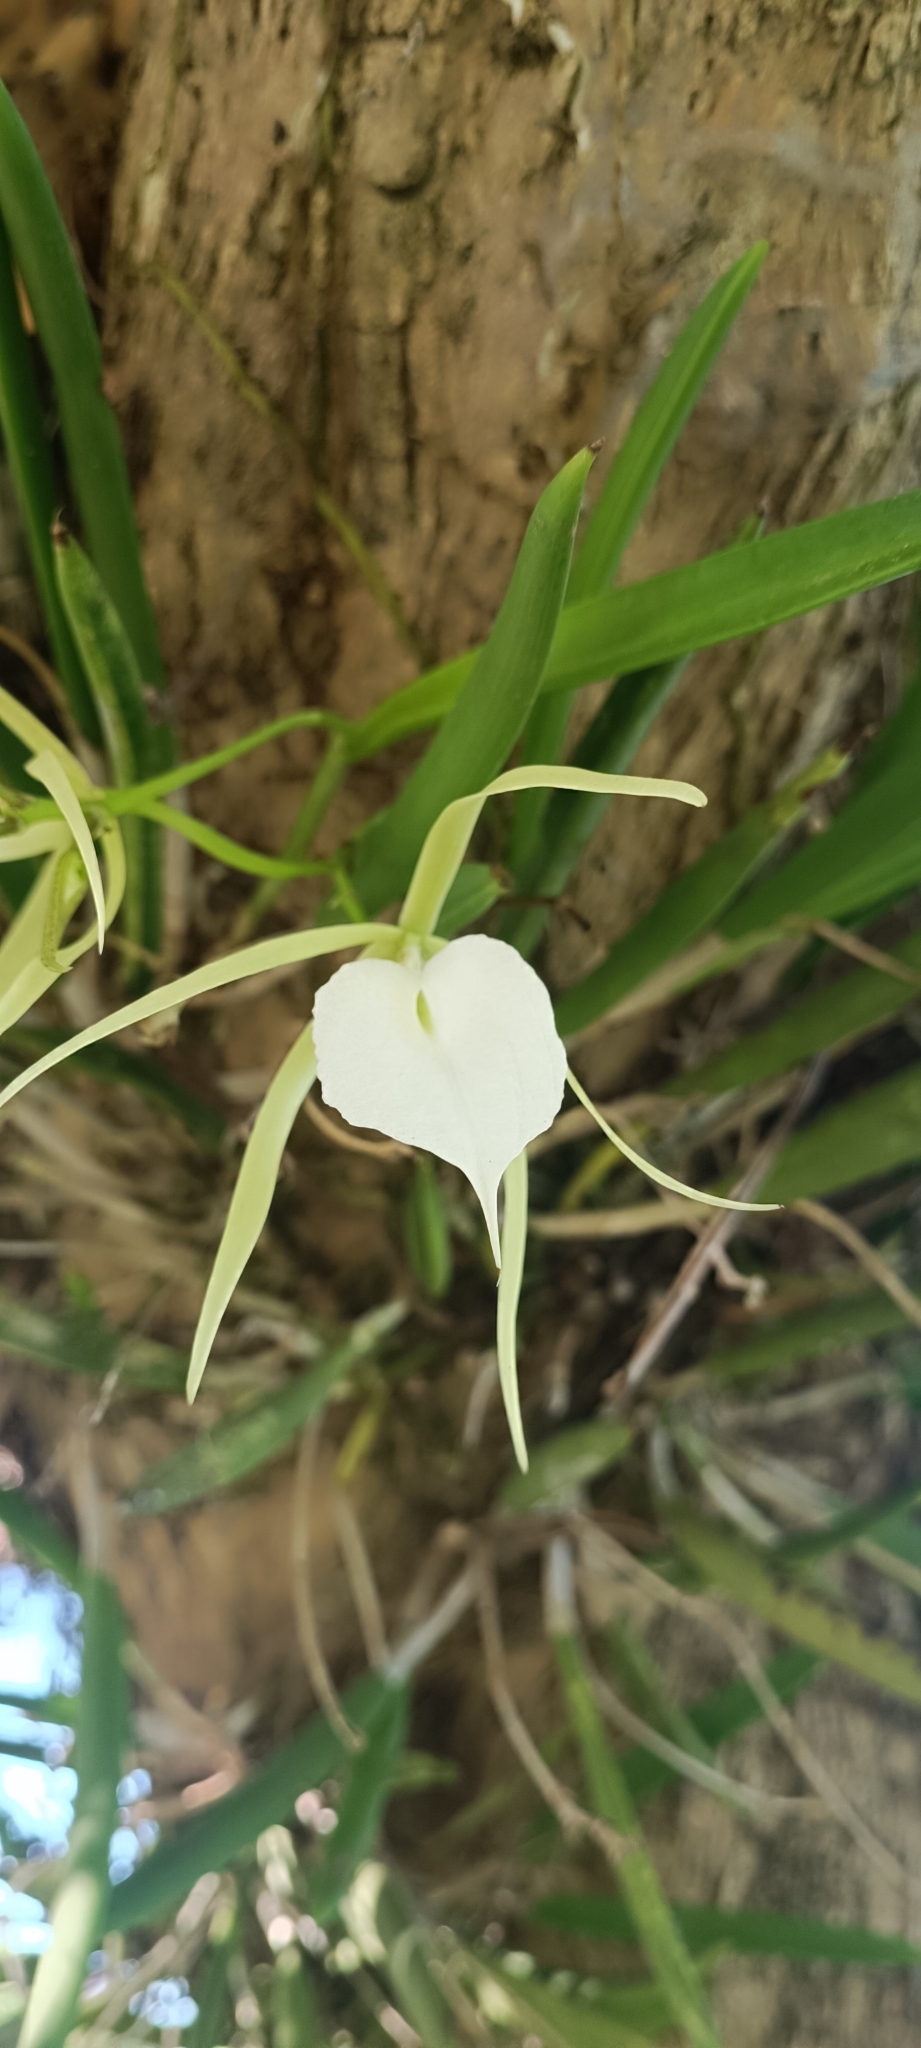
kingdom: Plantae
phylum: Tracheophyta
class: Liliopsida
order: Asparagales
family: Orchidaceae
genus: Brassavola
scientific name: Brassavola nodosa
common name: Lady of the night
